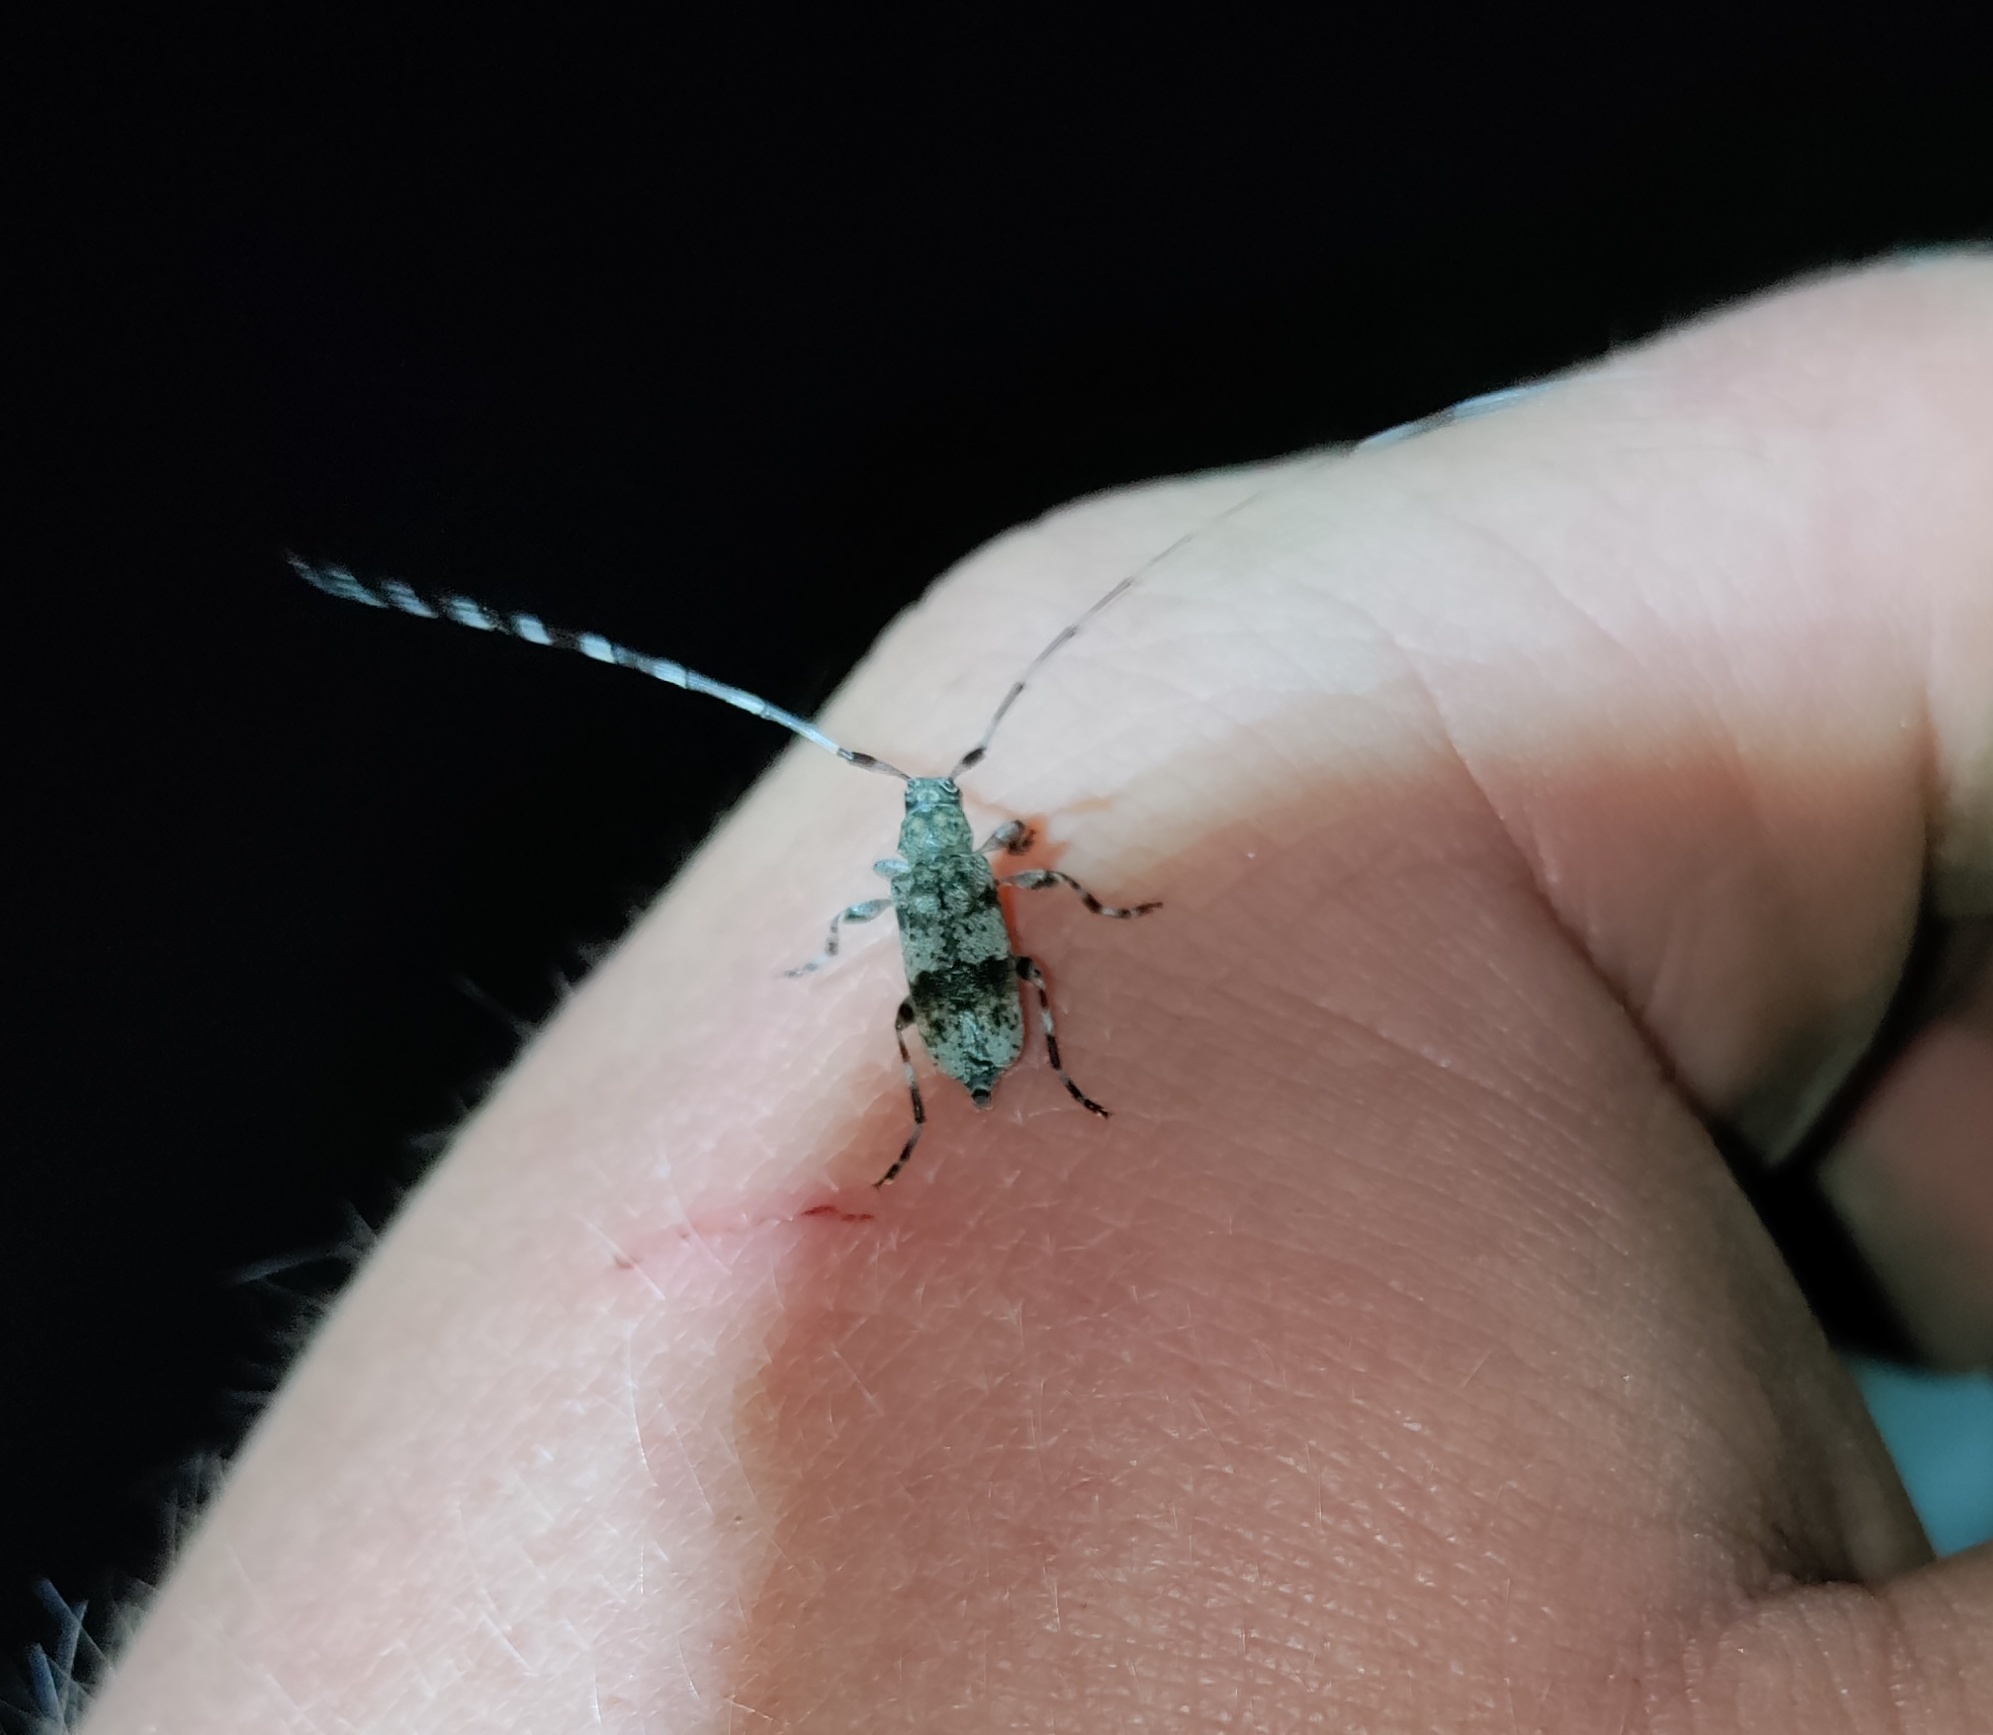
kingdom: Animalia
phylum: Arthropoda
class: Insecta
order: Coleoptera
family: Cerambycidae
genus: Acanthocinus
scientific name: Acanthocinus griseus
